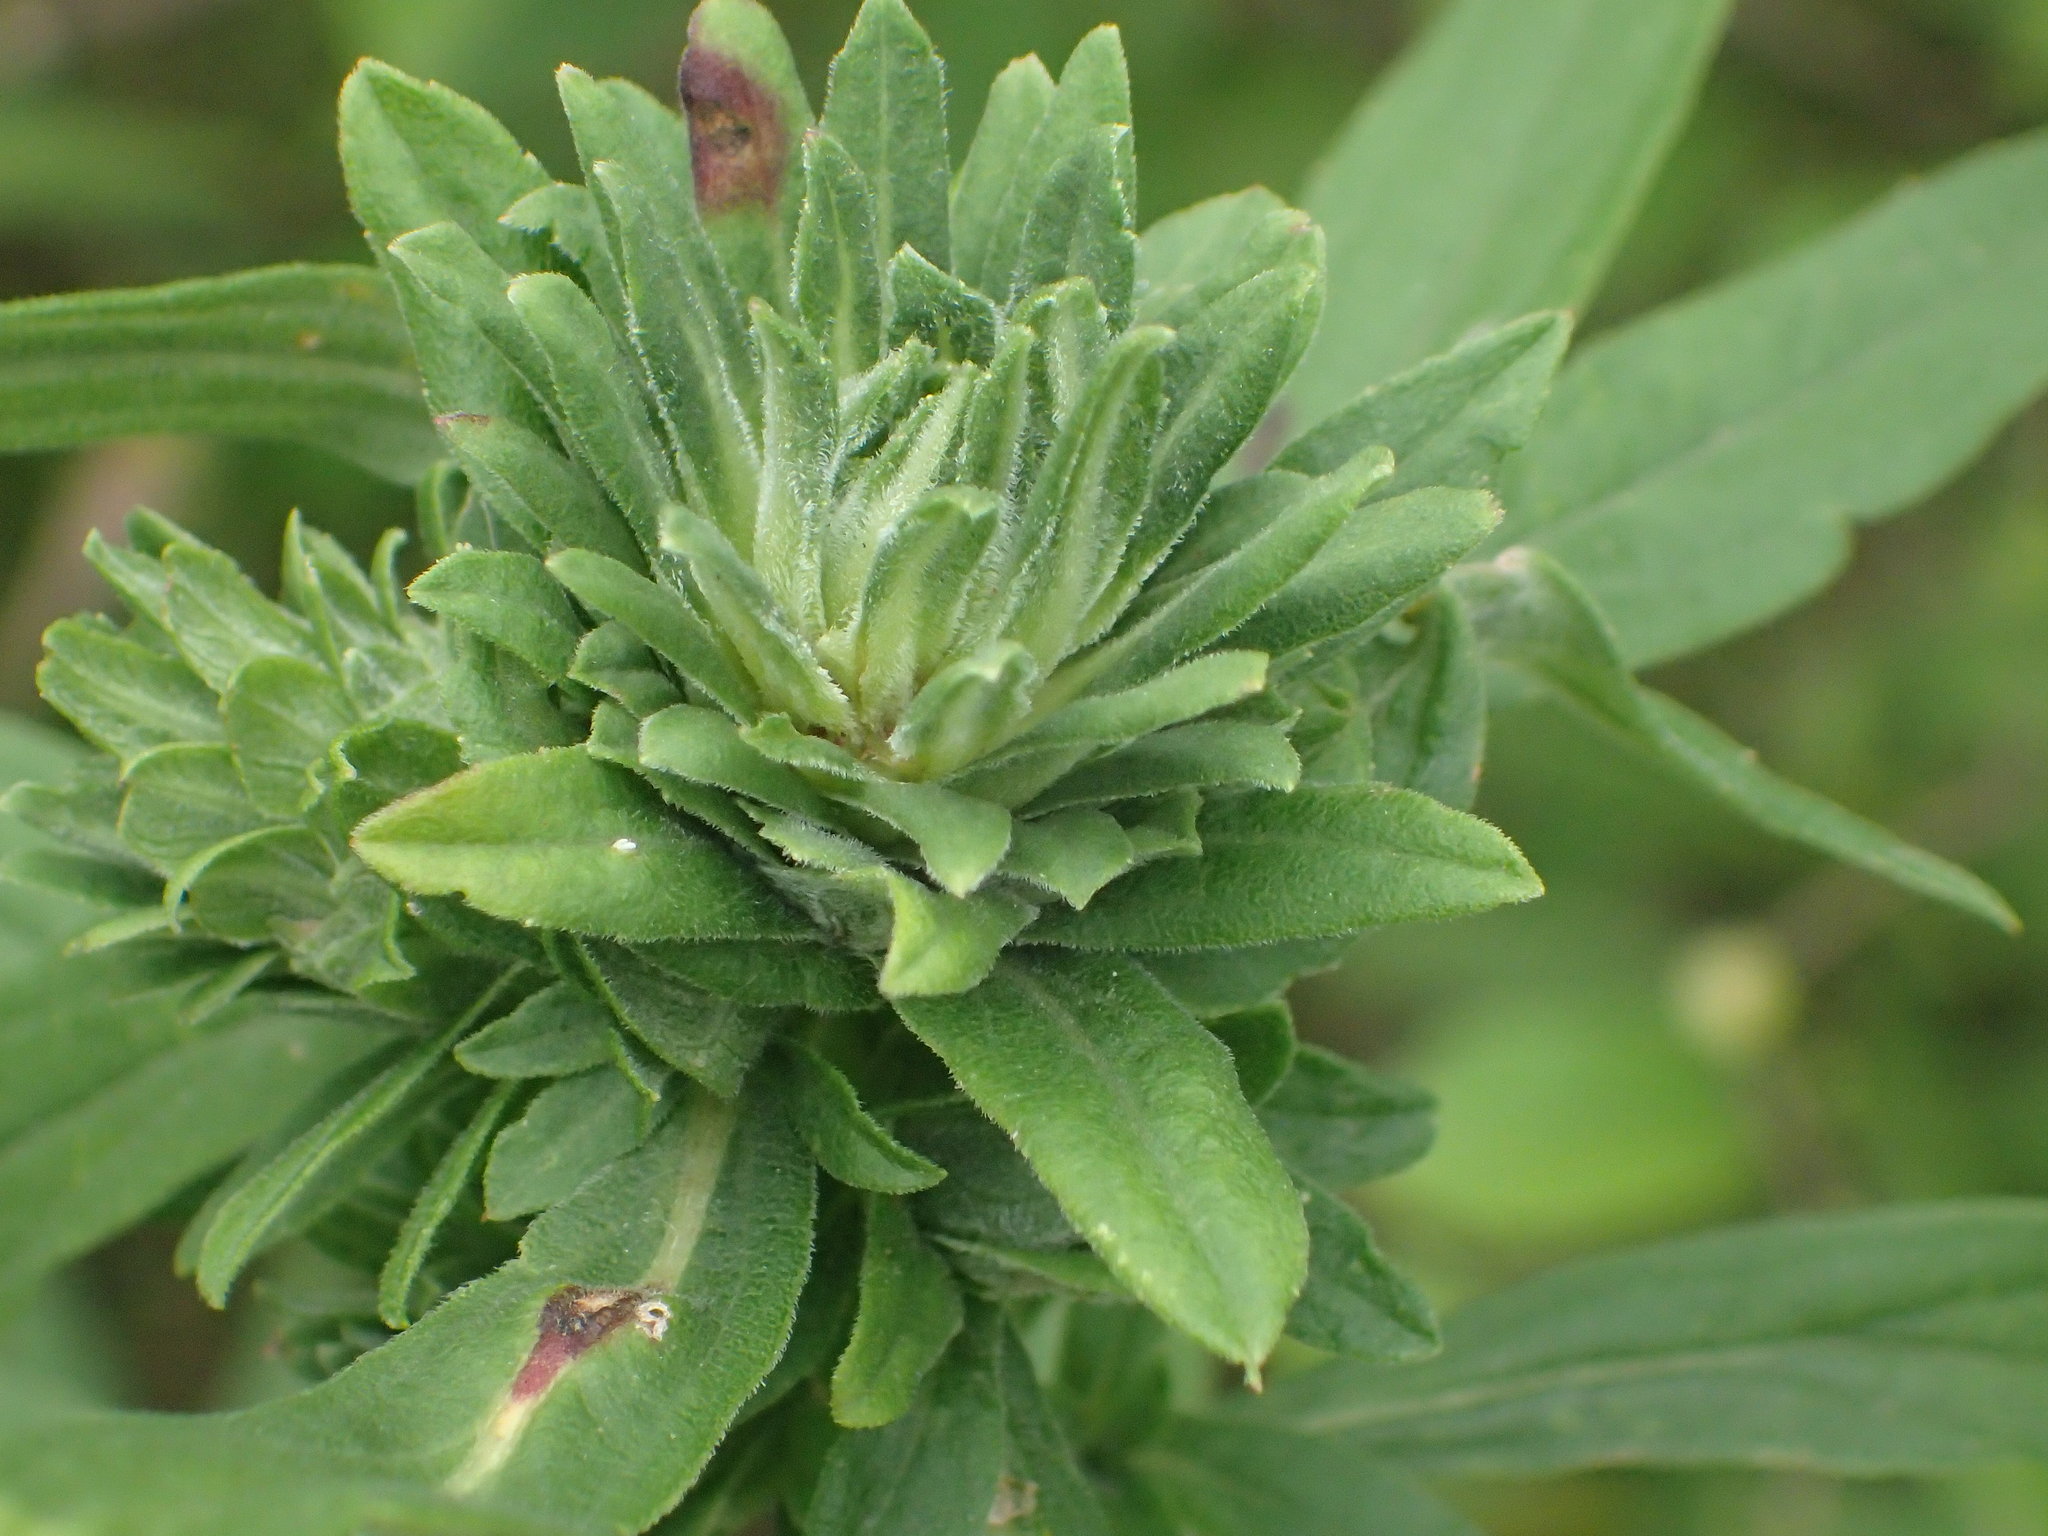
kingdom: Animalia
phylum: Arthropoda
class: Insecta
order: Diptera
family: Tephritidae
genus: Procecidochares
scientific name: Procecidochares atra
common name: Goldenrod brussels sprout gall fly
